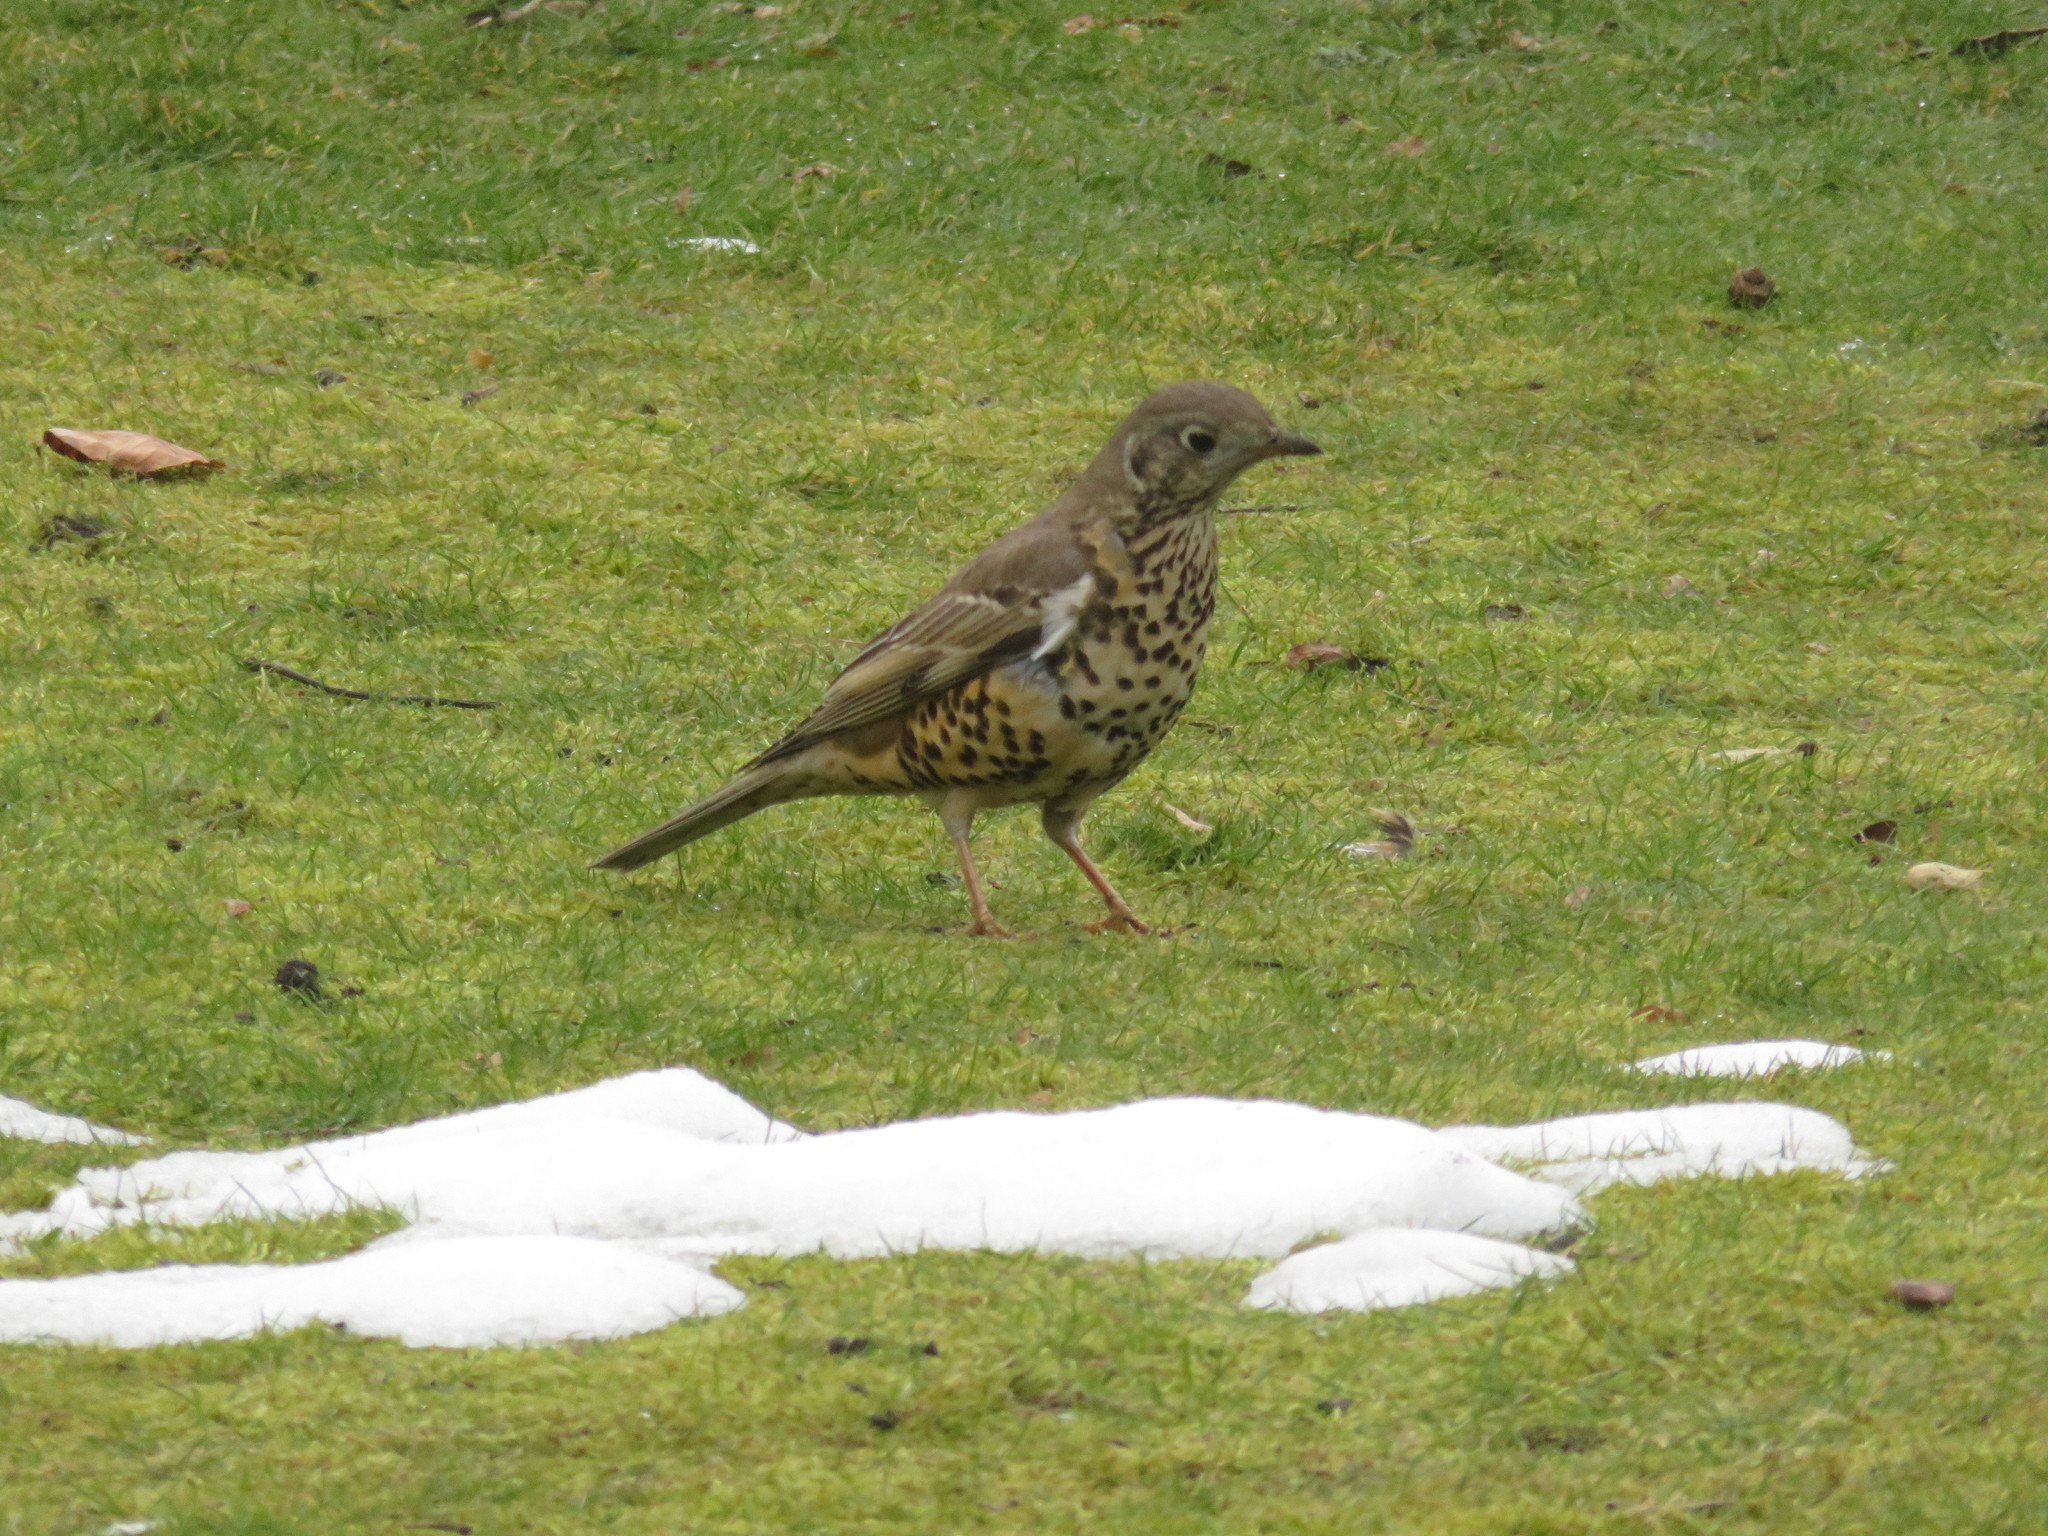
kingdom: Animalia
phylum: Chordata
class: Aves
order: Passeriformes
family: Turdidae
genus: Turdus
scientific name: Turdus viscivorus
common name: Mistle thrush
